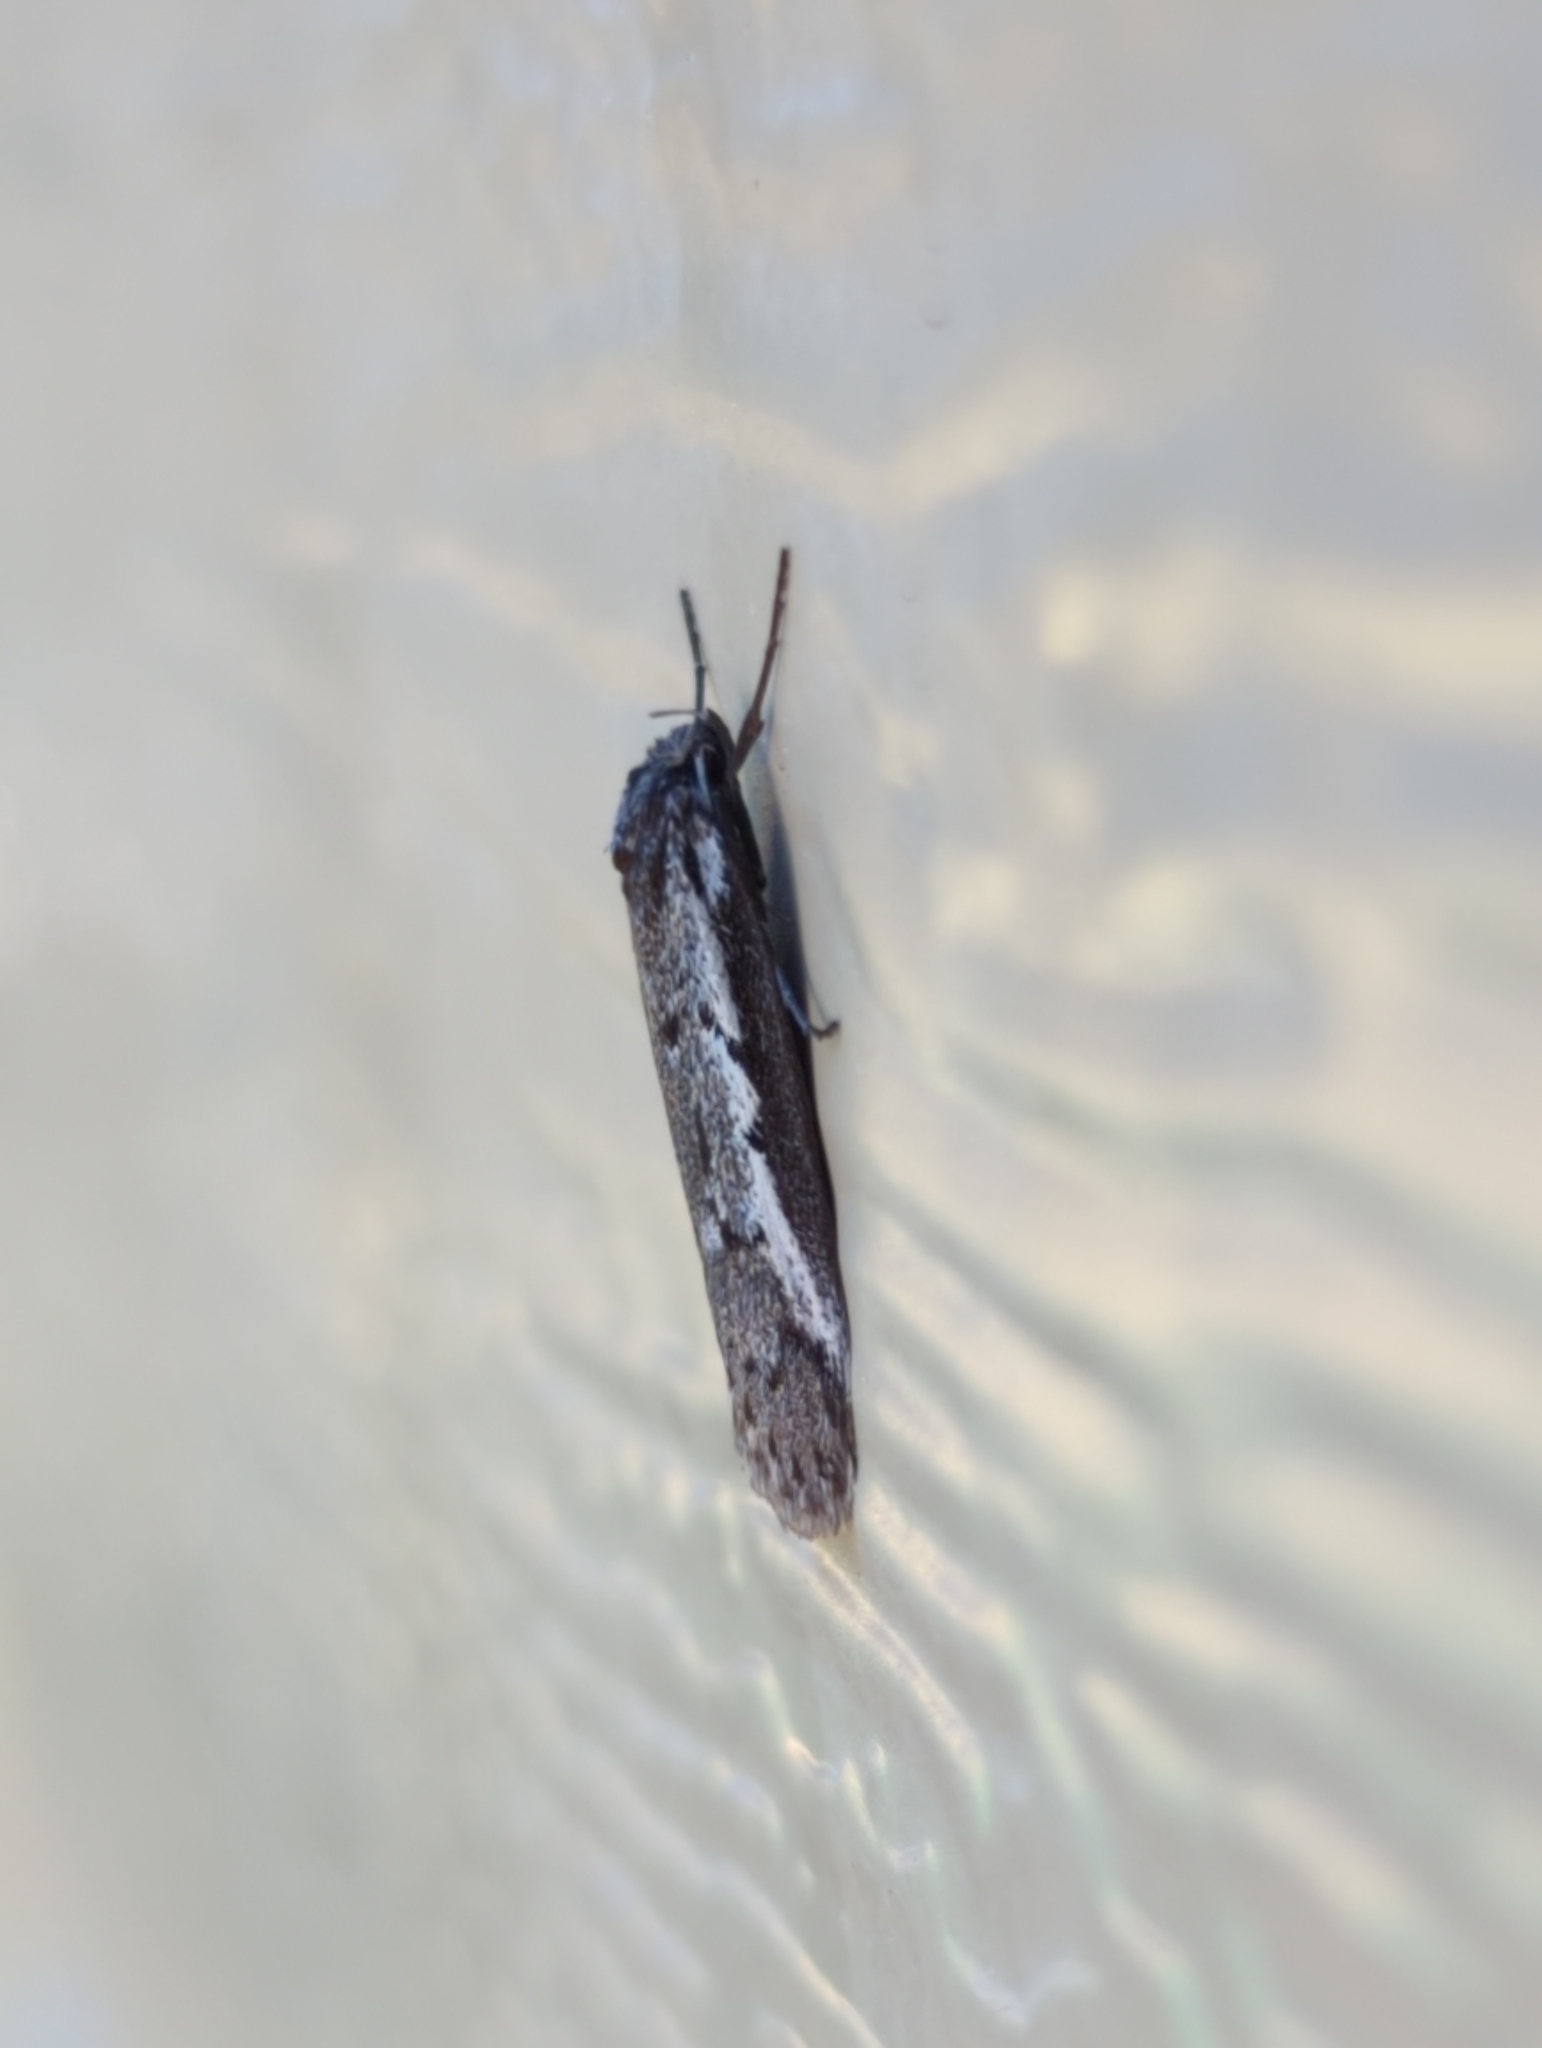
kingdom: Animalia
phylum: Arthropoda
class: Insecta
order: Lepidoptera
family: Oecophoridae
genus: Philobota
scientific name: Philobota stella
